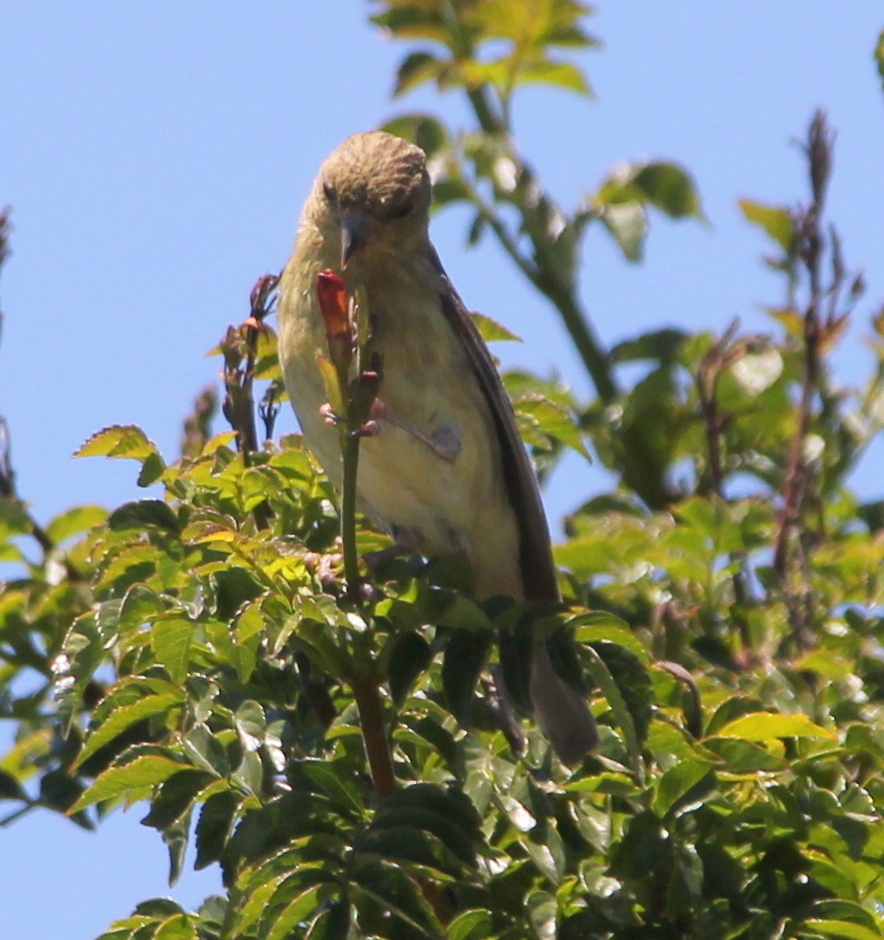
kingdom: Animalia
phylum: Chordata
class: Aves
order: Passeriformes
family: Fringillidae
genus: Spinus
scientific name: Spinus psaltria
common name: Lesser goldfinch
